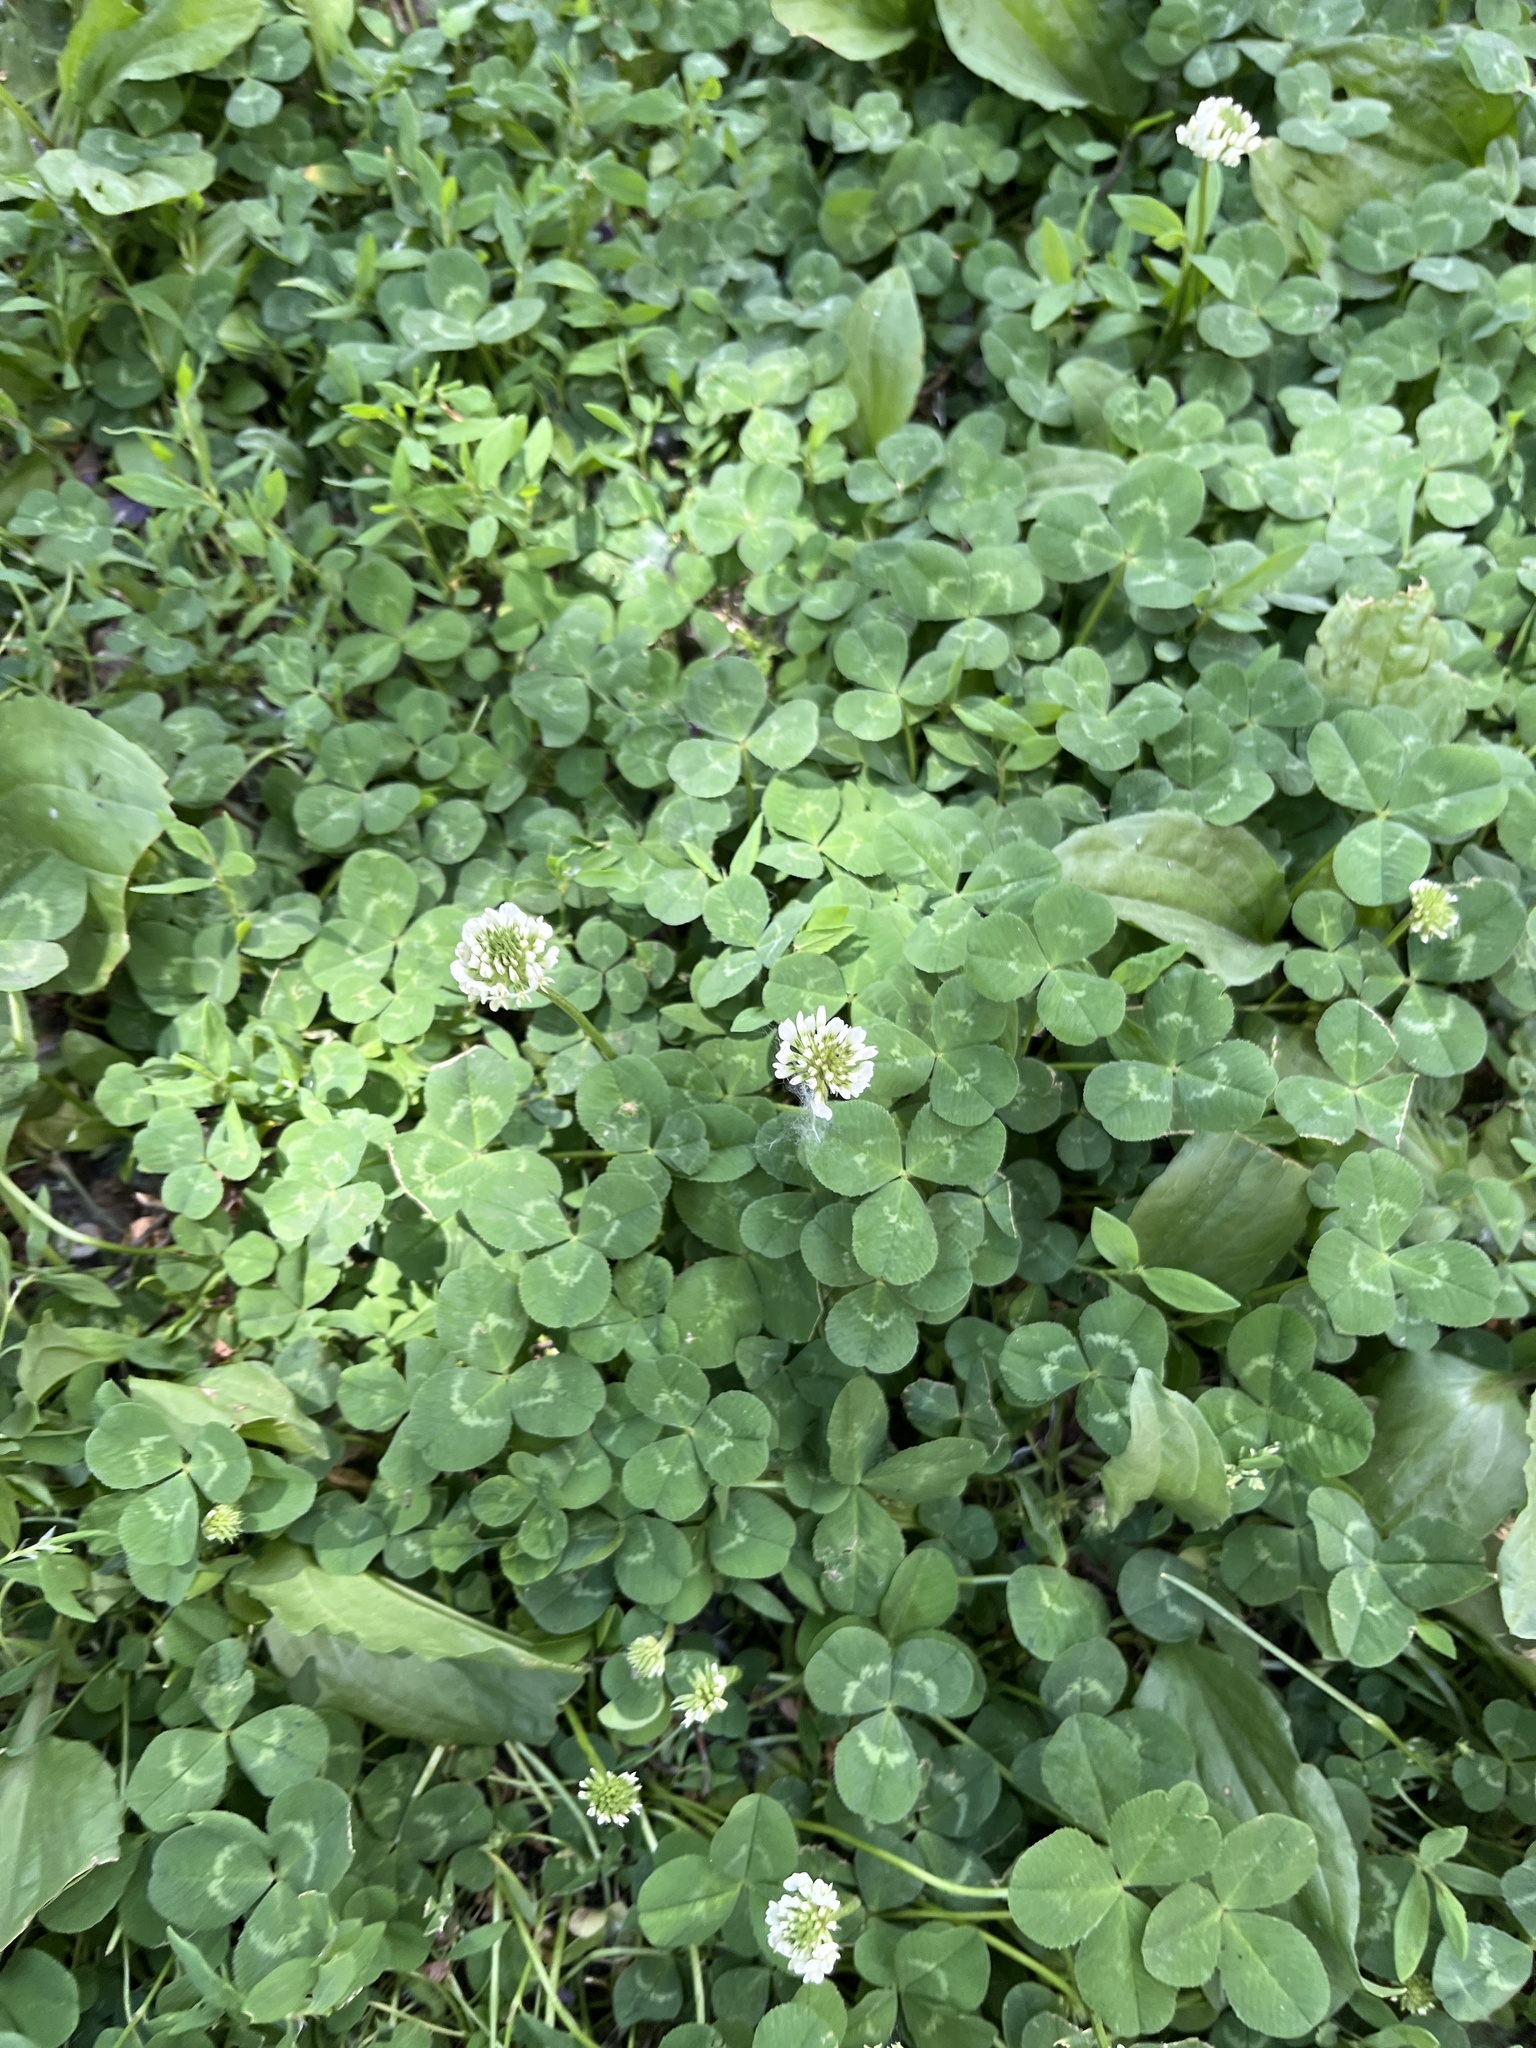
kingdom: Plantae
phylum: Tracheophyta
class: Magnoliopsida
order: Fabales
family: Fabaceae
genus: Trifolium
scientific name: Trifolium repens
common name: White clover
